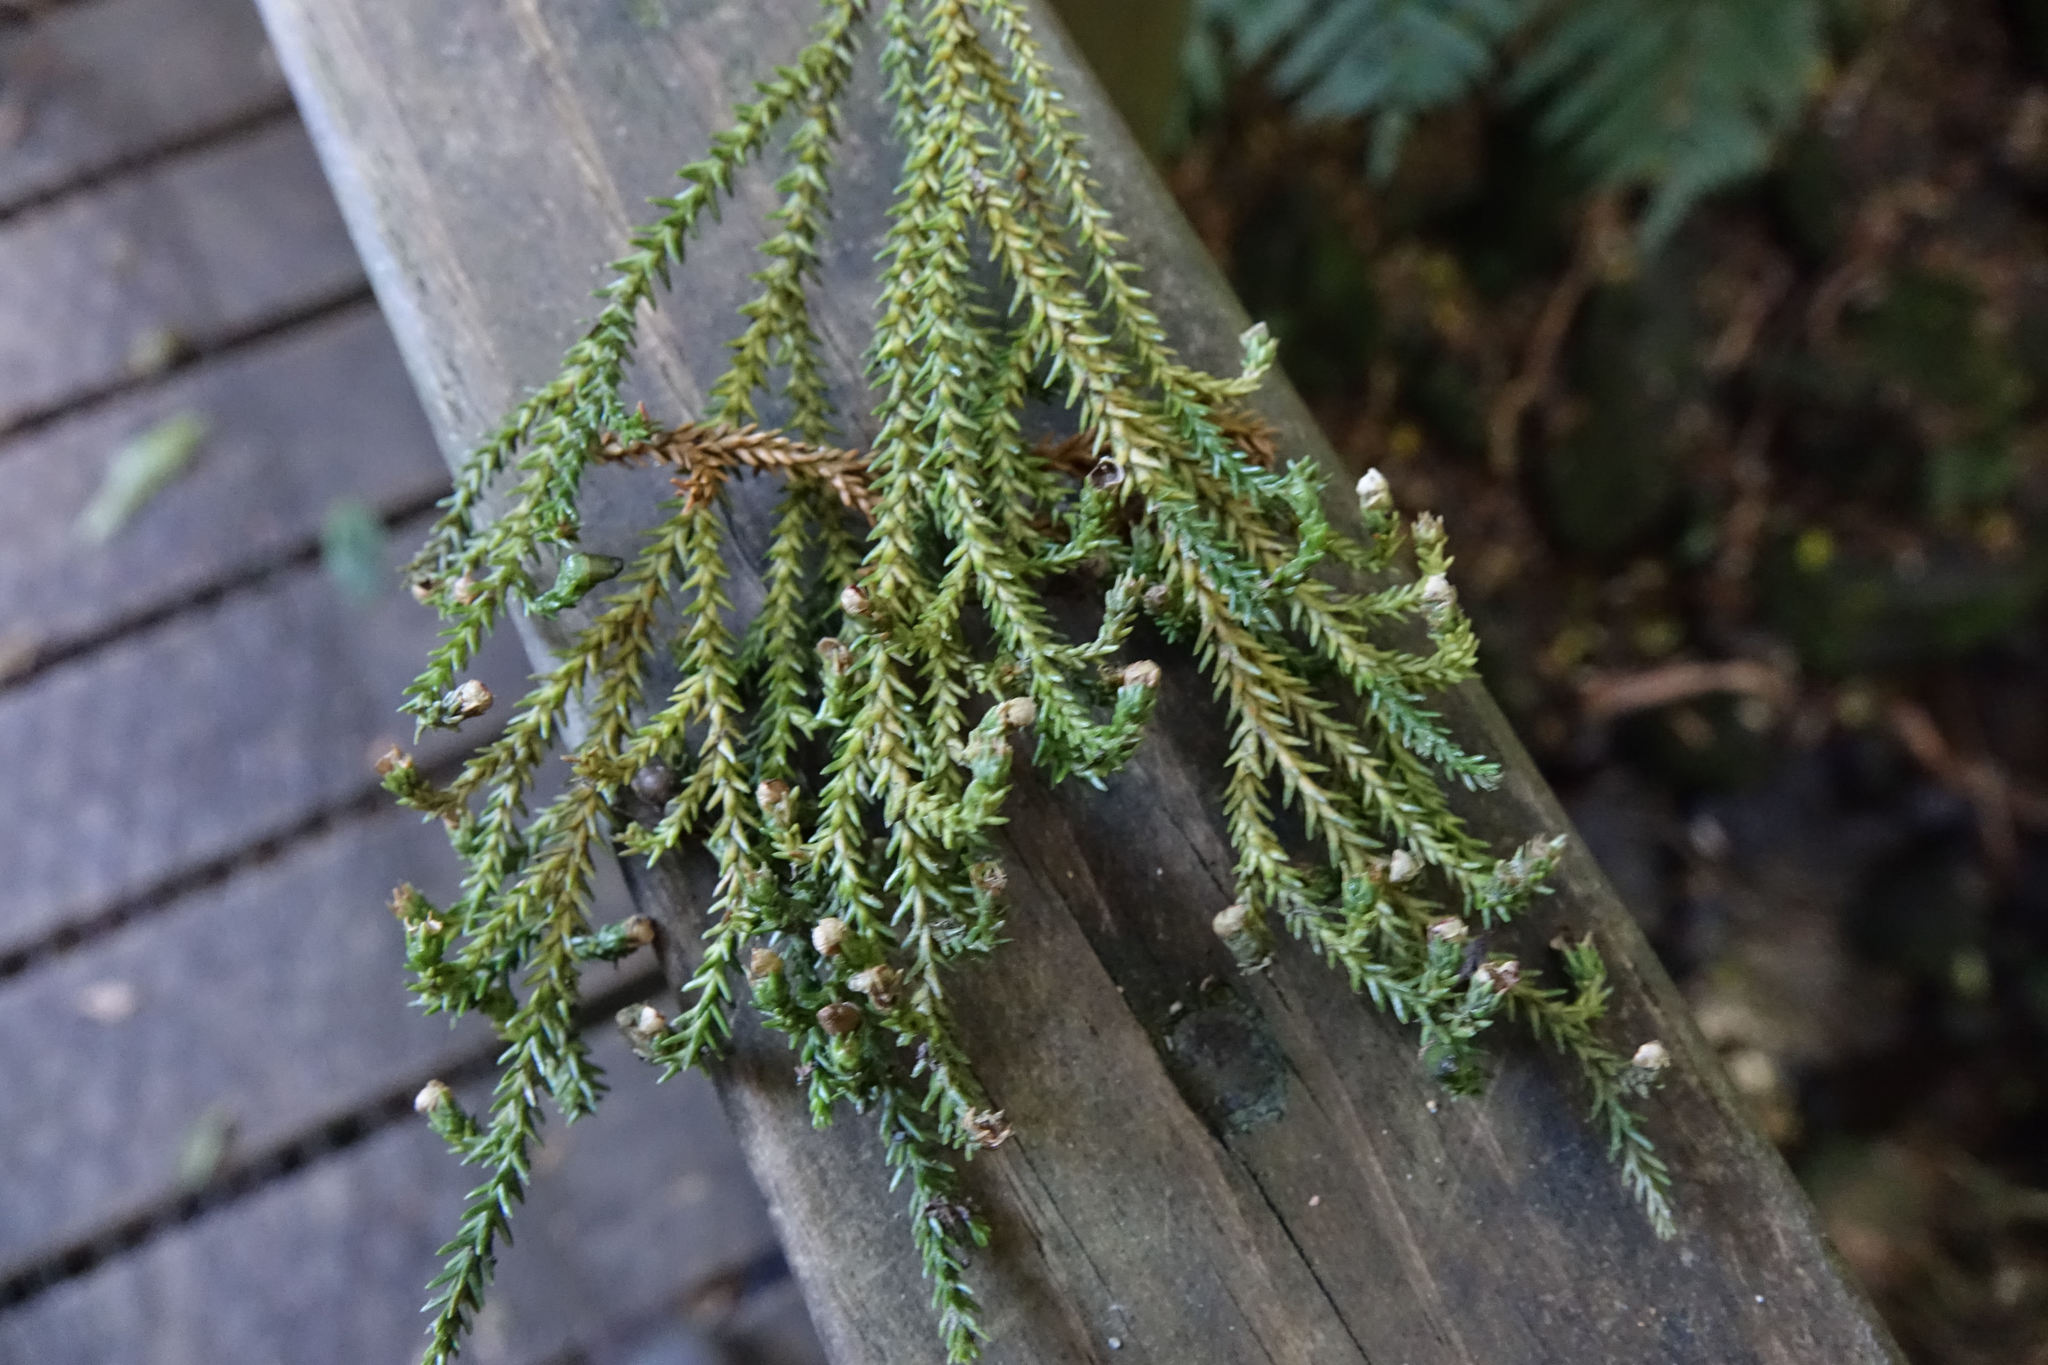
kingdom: Plantae
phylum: Tracheophyta
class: Pinopsida
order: Pinales
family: Podocarpaceae
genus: Dacrydium
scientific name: Dacrydium cupressinum
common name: Red pine
